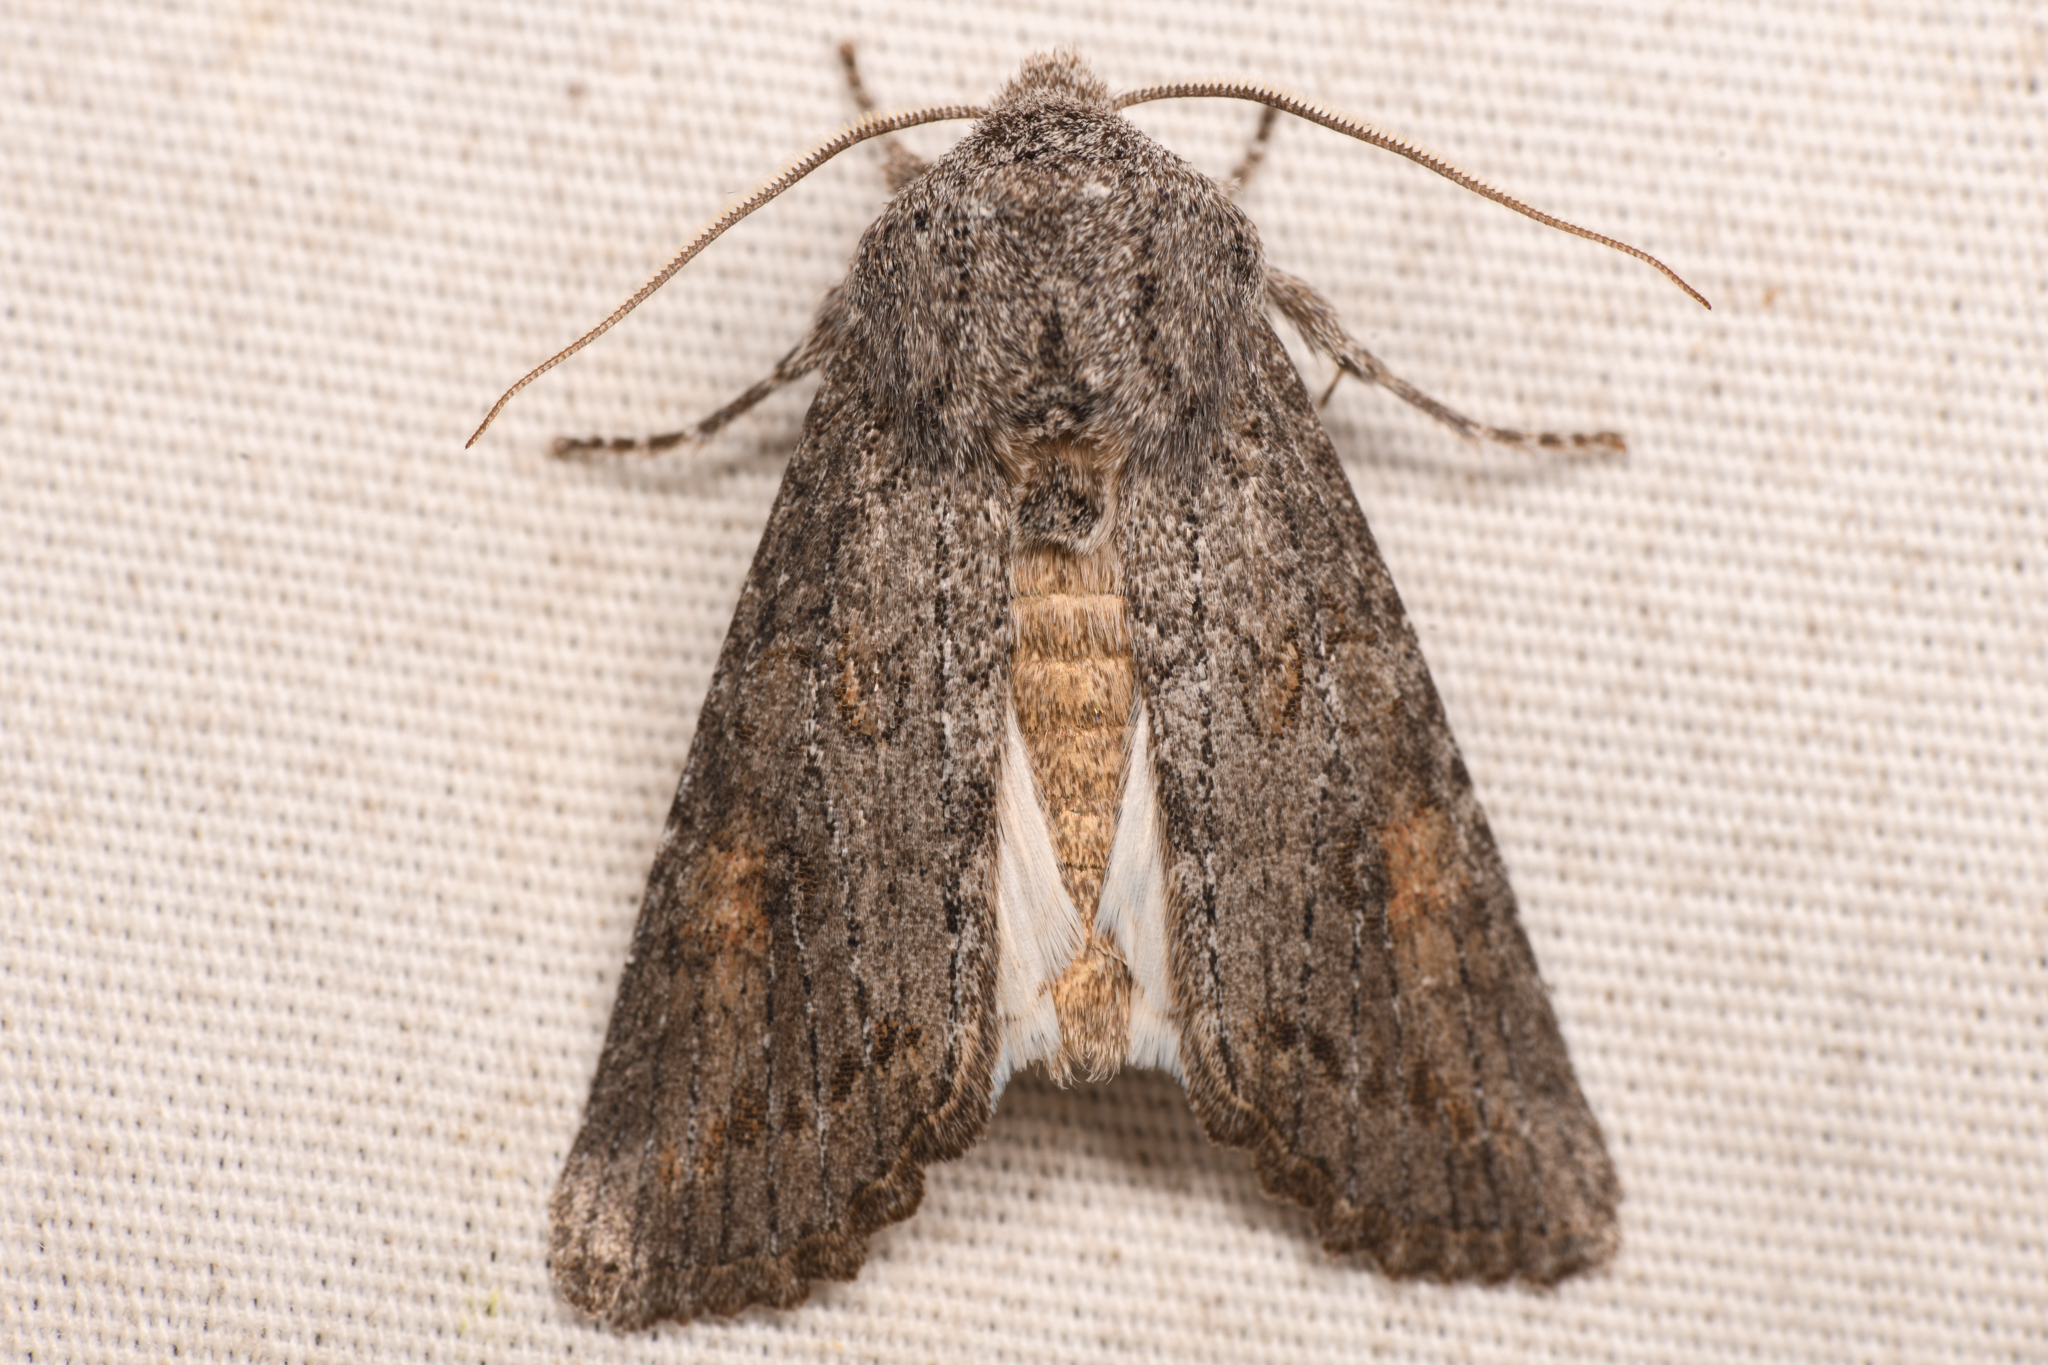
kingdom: Animalia
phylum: Arthropoda
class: Insecta
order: Lepidoptera
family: Noctuidae
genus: Egira
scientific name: Egira curialis
